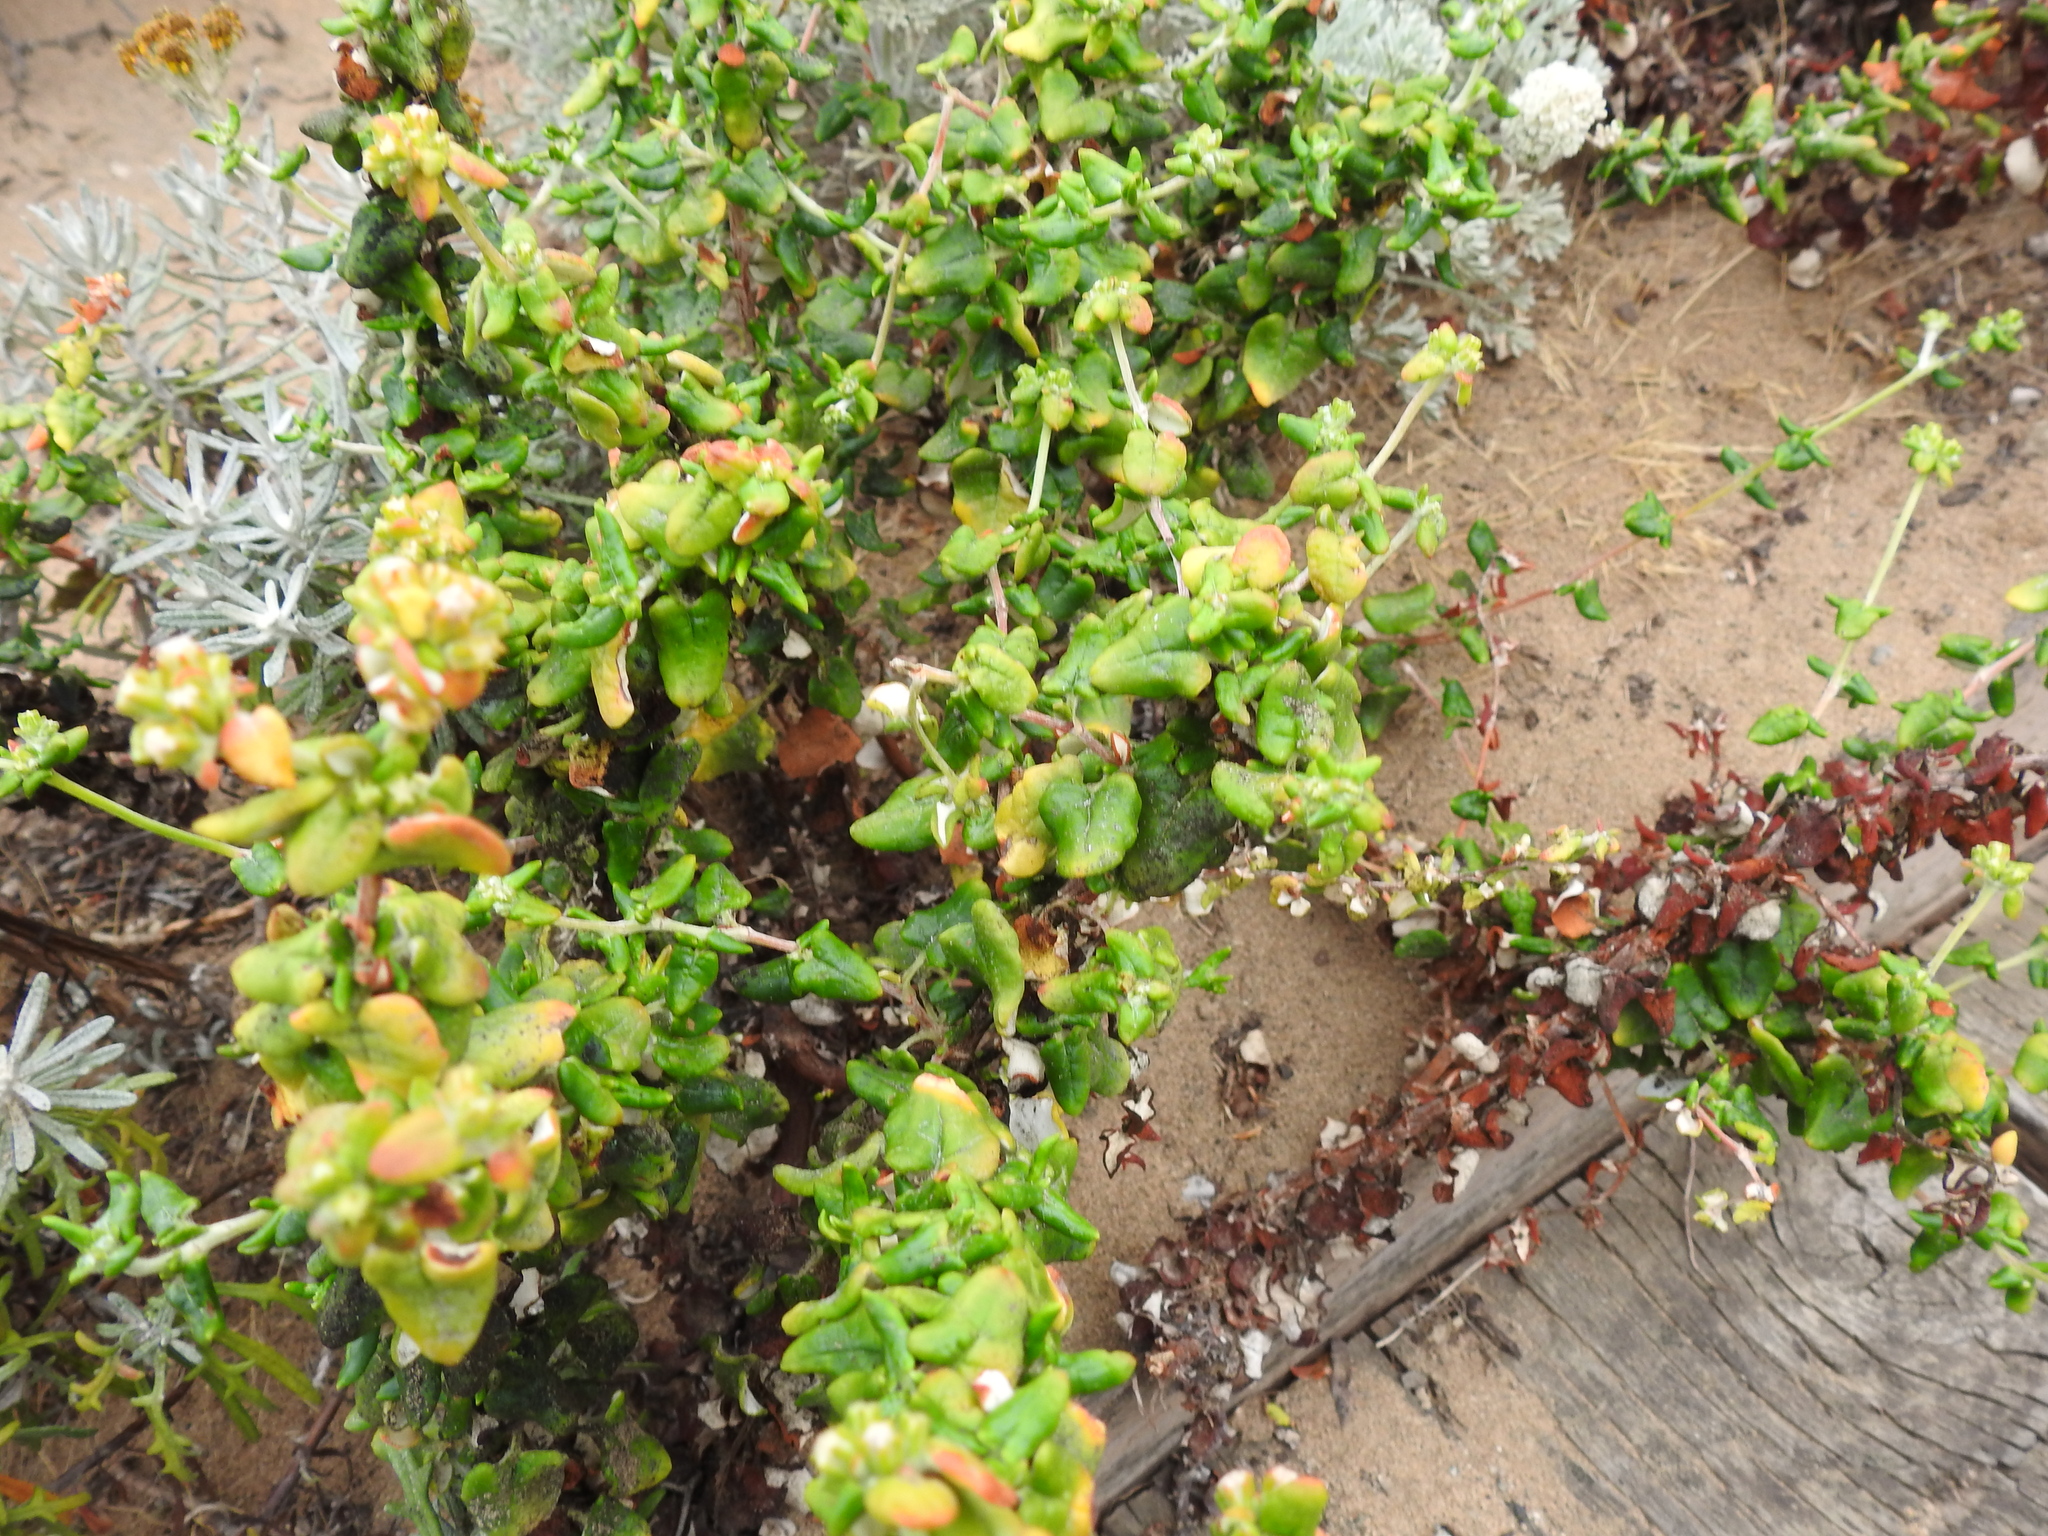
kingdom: Plantae
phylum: Tracheophyta
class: Magnoliopsida
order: Caryophyllales
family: Polygonaceae
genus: Eriogonum
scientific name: Eriogonum parvifolium
